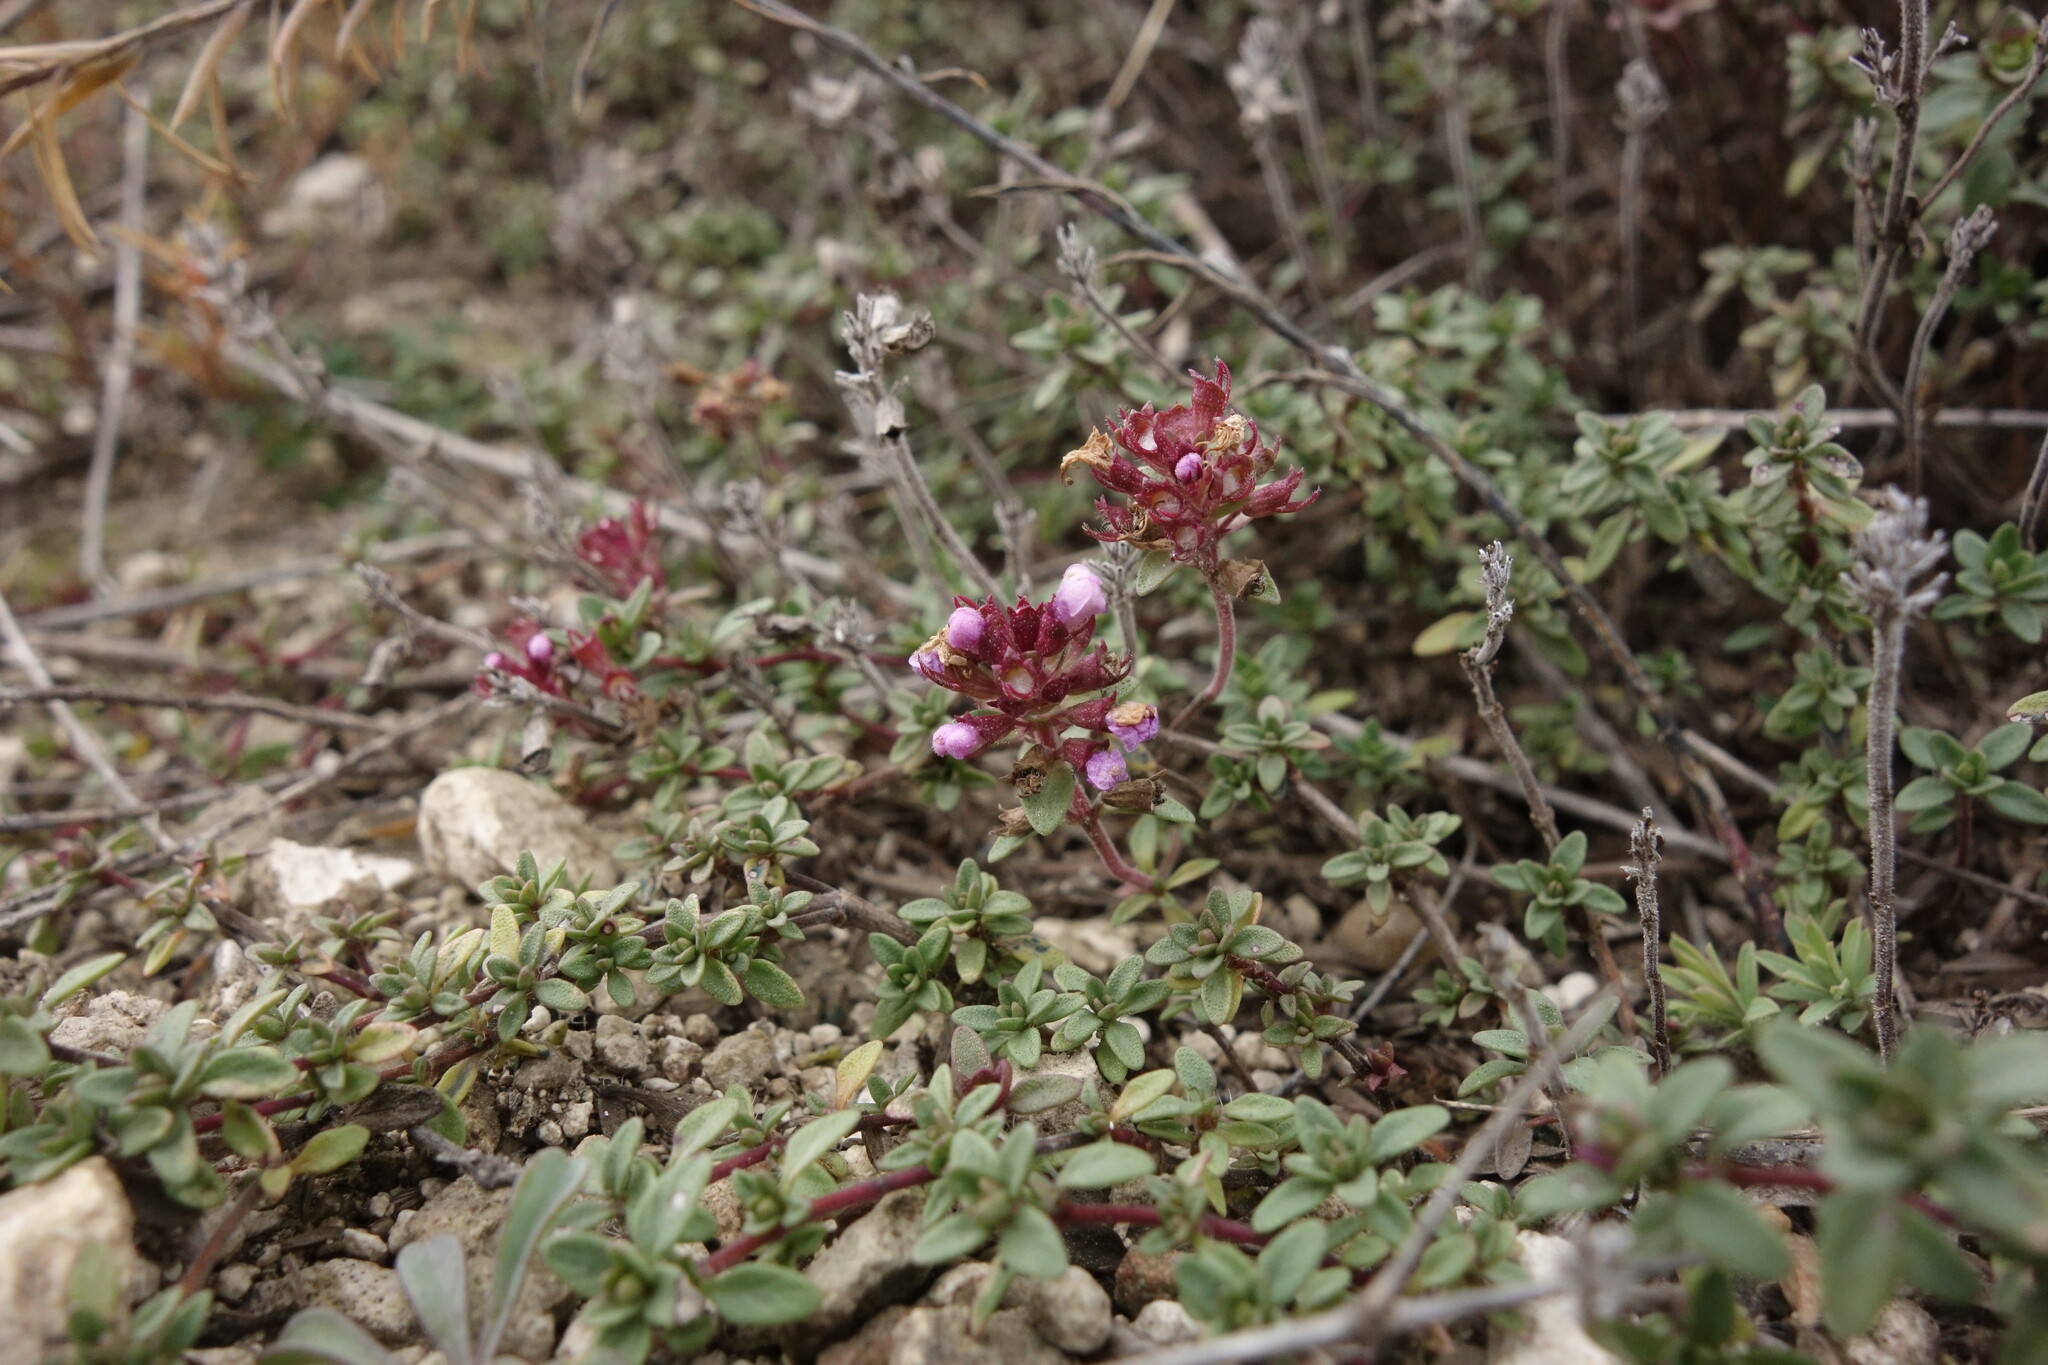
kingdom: Plantae
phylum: Tracheophyta
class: Magnoliopsida
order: Lamiales
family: Lamiaceae
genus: Thymus
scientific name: Thymus calcareus
